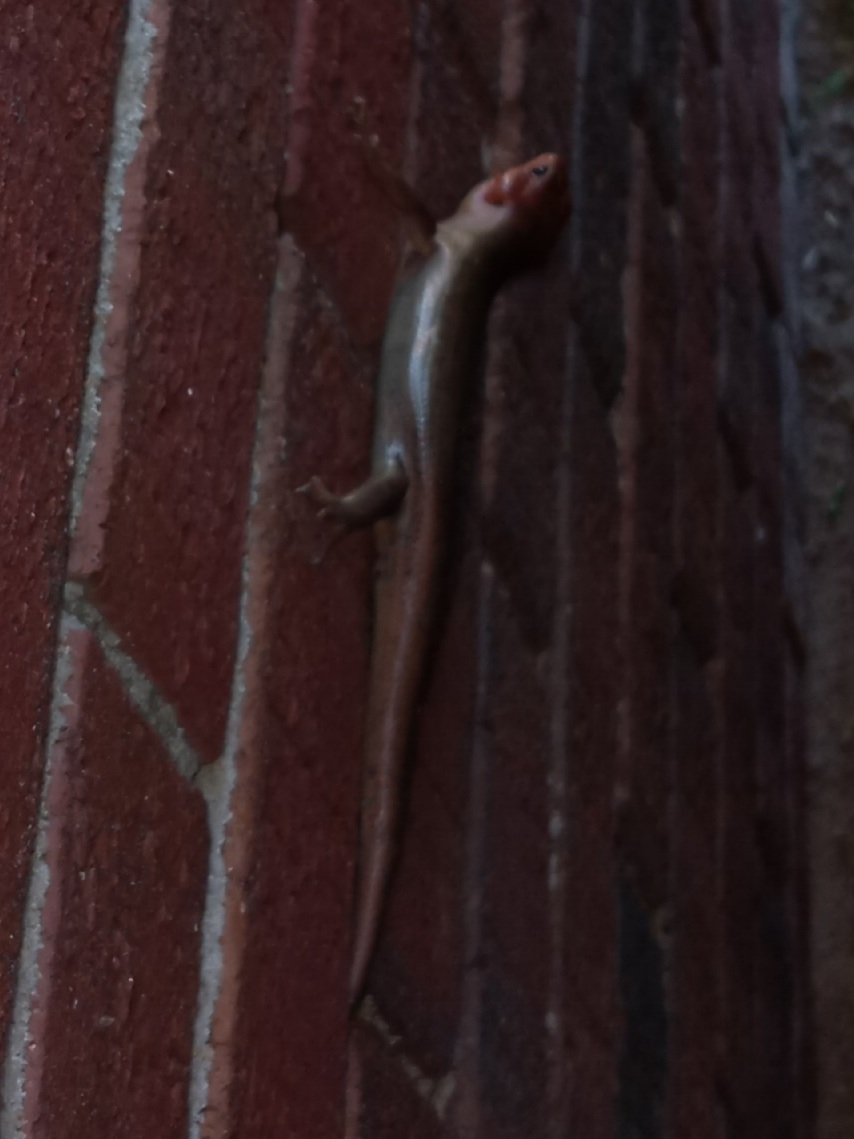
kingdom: Animalia
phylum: Chordata
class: Squamata
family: Scincidae
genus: Plestiodon
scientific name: Plestiodon laticeps
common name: Broadhead skink
